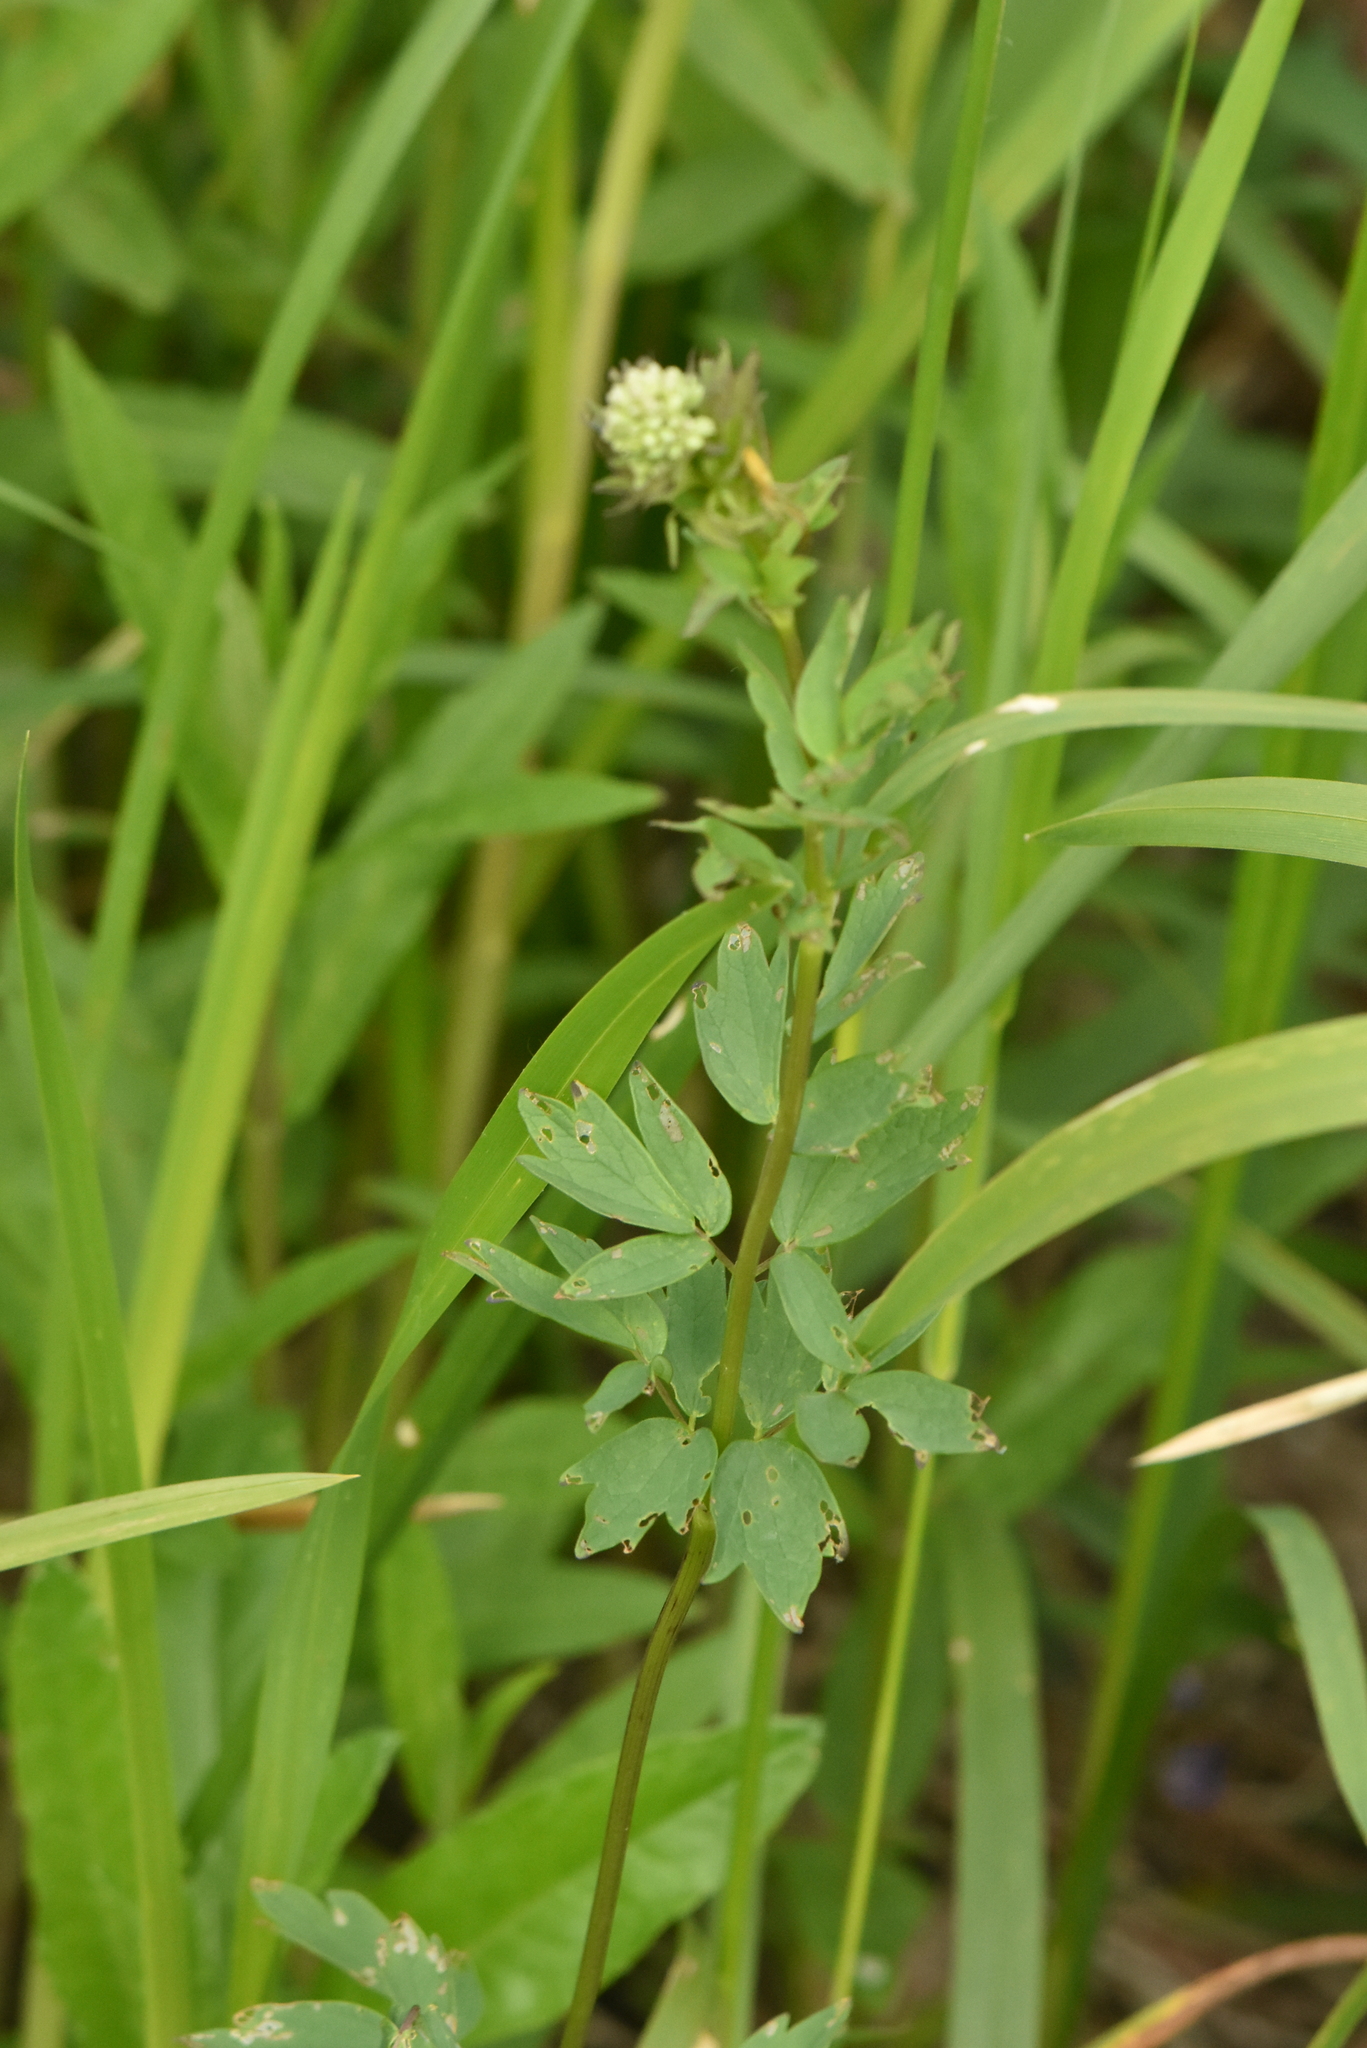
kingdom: Plantae
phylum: Tracheophyta
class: Magnoliopsida
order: Ranunculales
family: Ranunculaceae
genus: Thalictrum
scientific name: Thalictrum flavum
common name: Common meadow-rue
